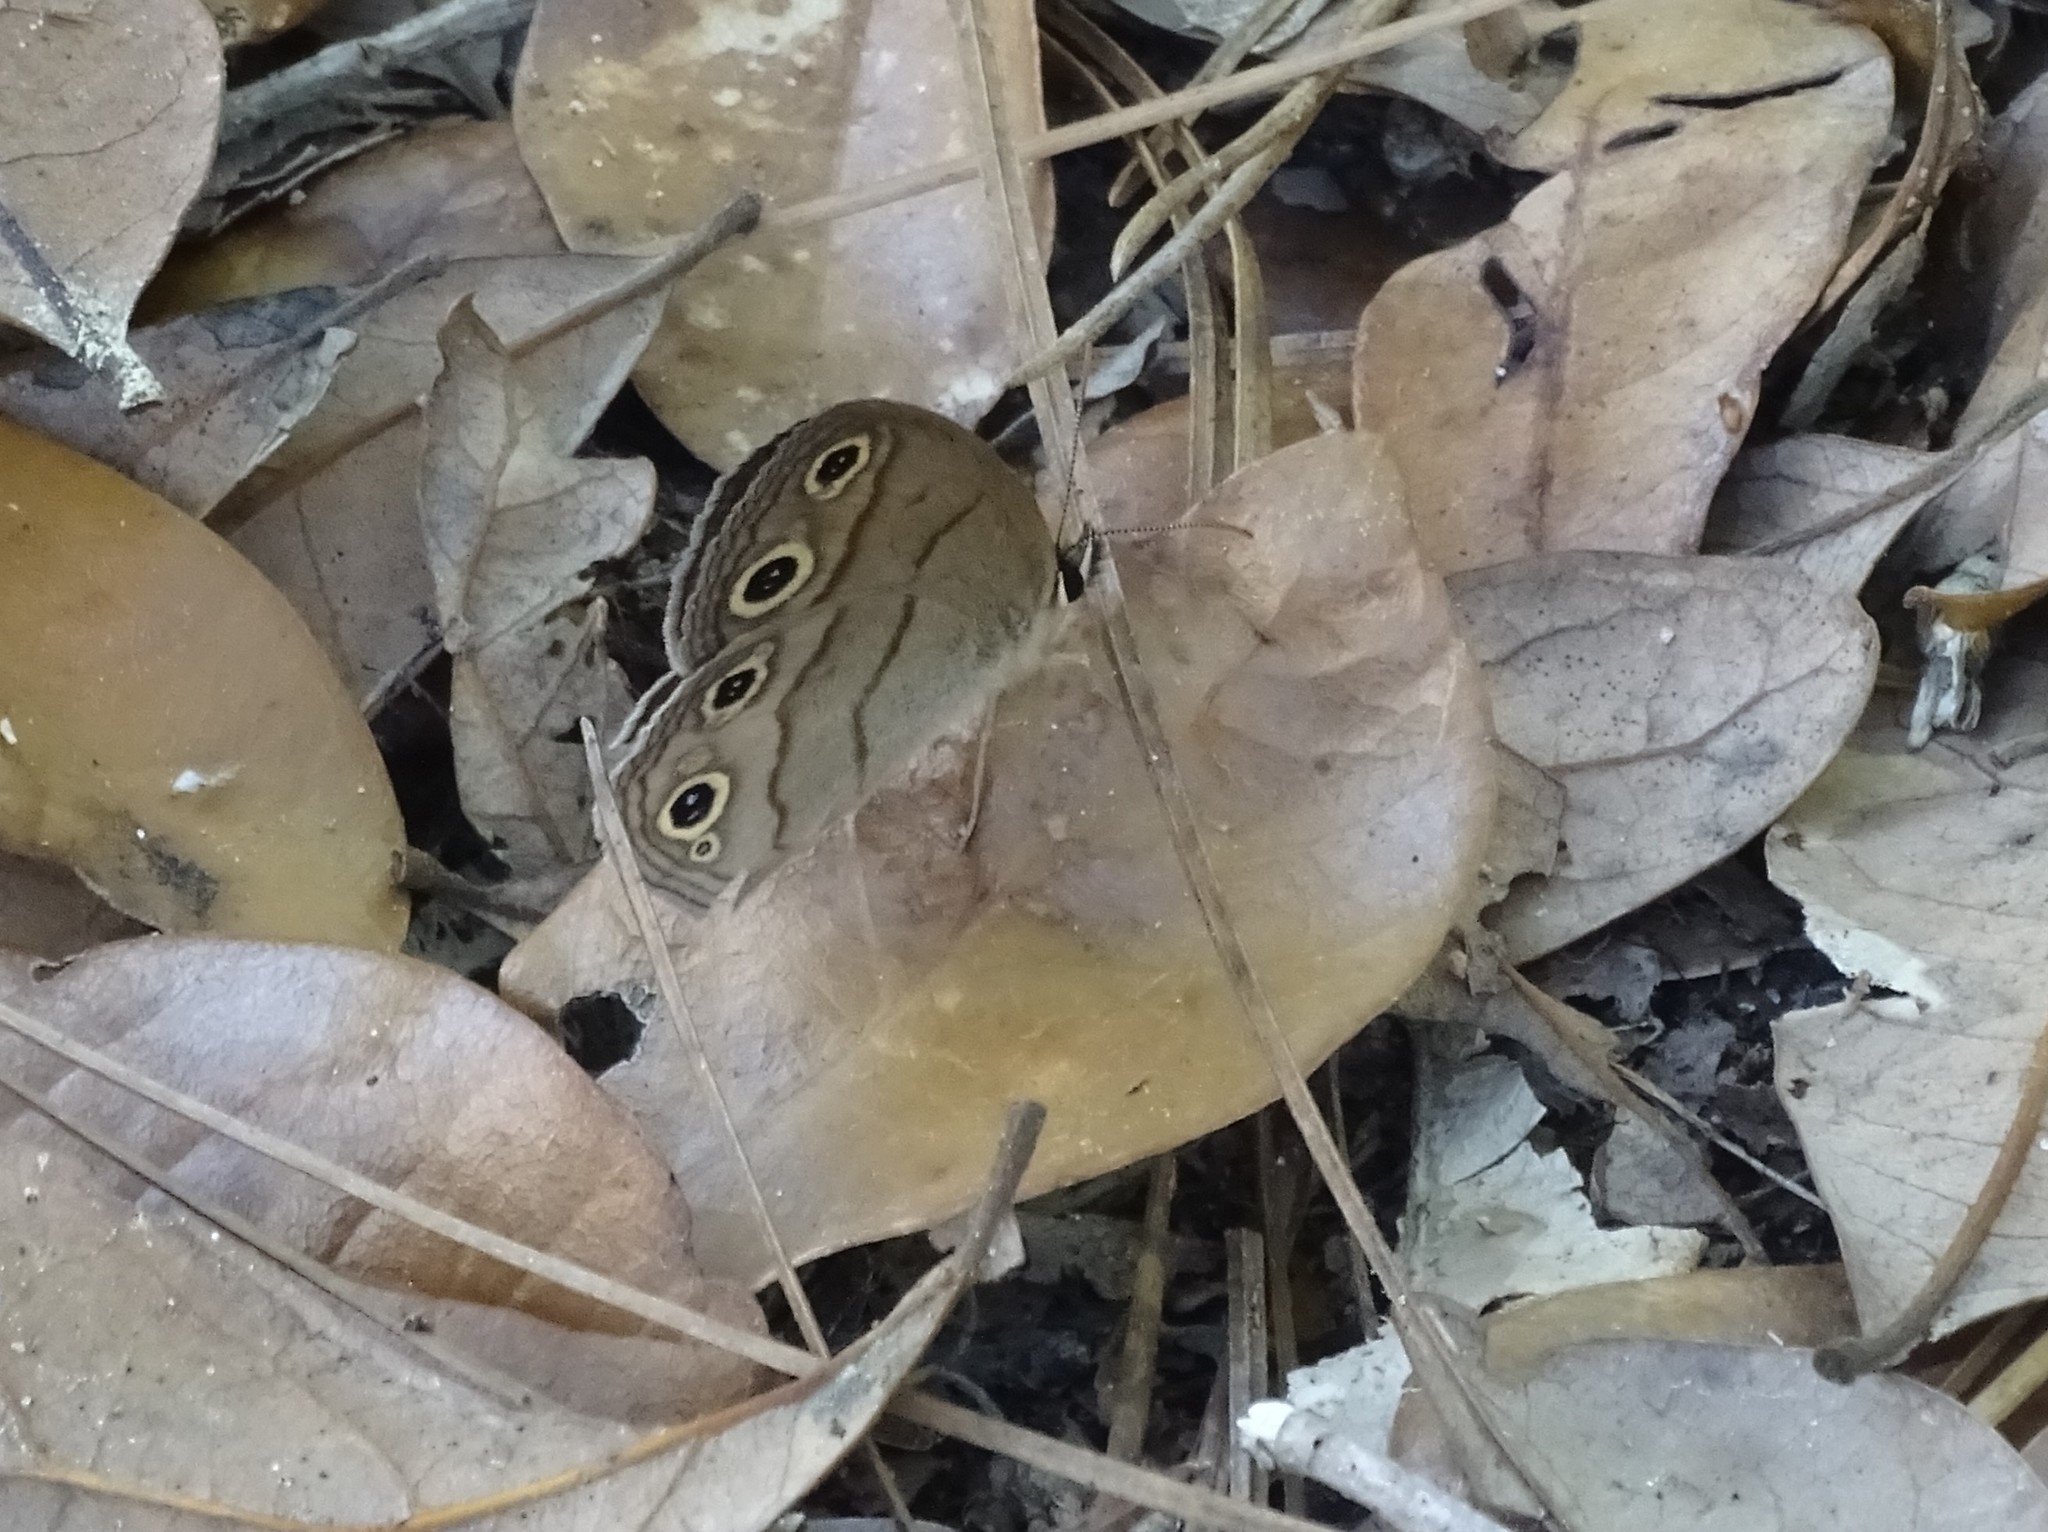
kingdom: Animalia
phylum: Arthropoda
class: Insecta
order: Lepidoptera
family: Nymphalidae
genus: Euptychia
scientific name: Euptychia cymela
